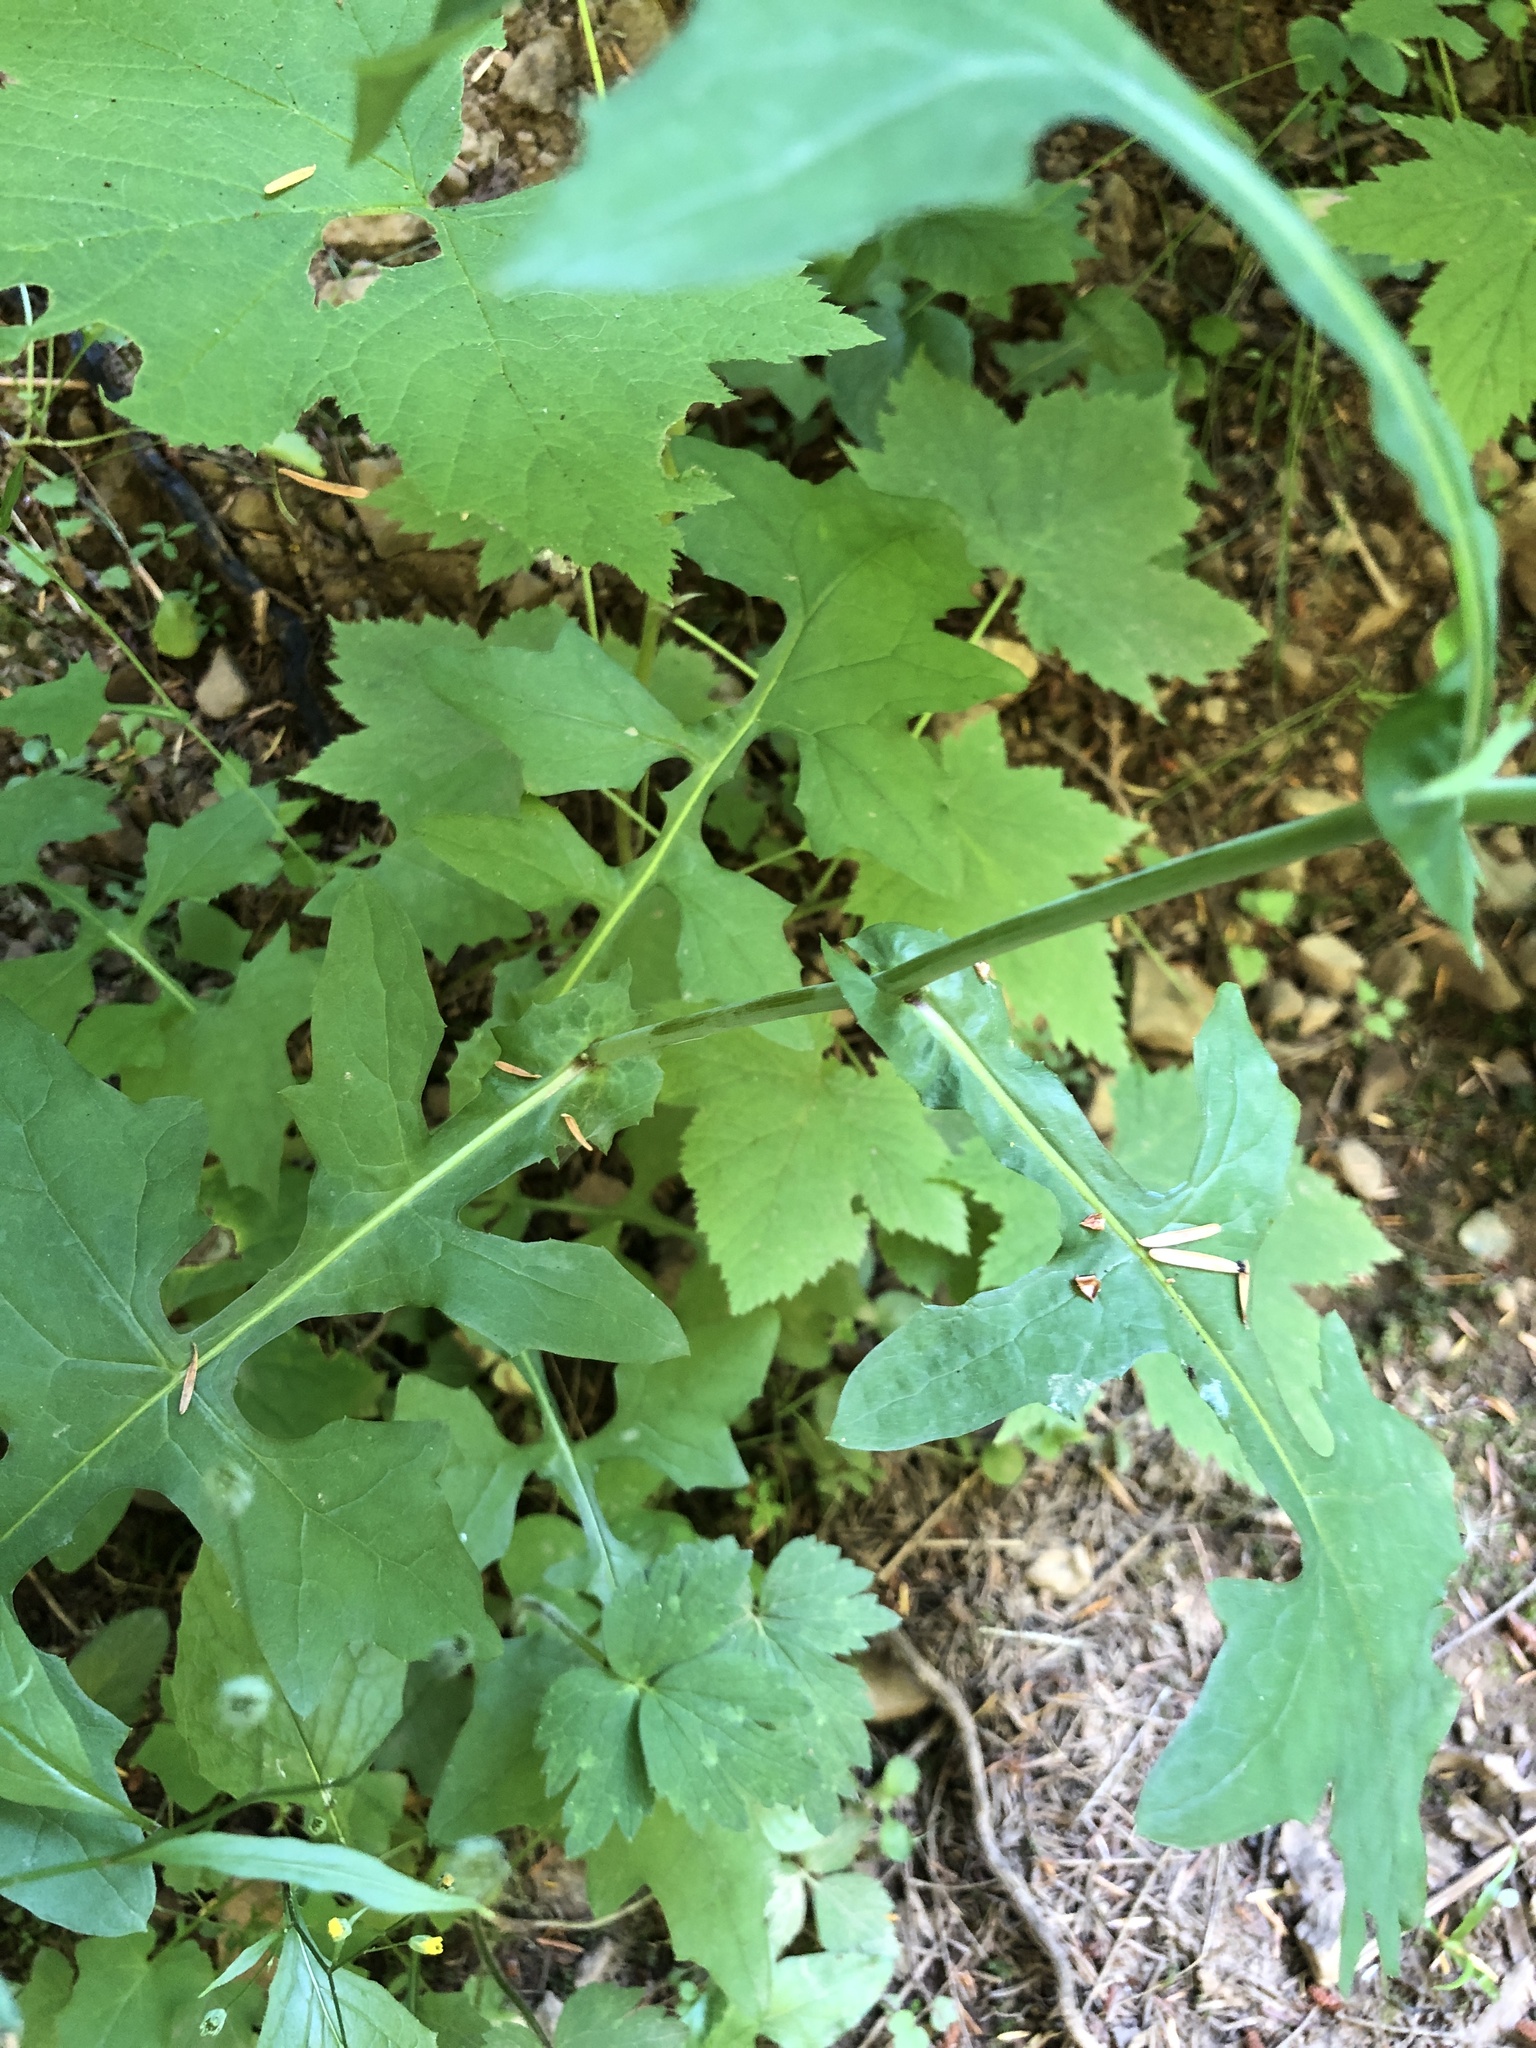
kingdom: Plantae
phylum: Tracheophyta
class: Magnoliopsida
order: Asterales
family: Asteraceae
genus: Mycelis
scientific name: Mycelis muralis
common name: Wall lettuce
